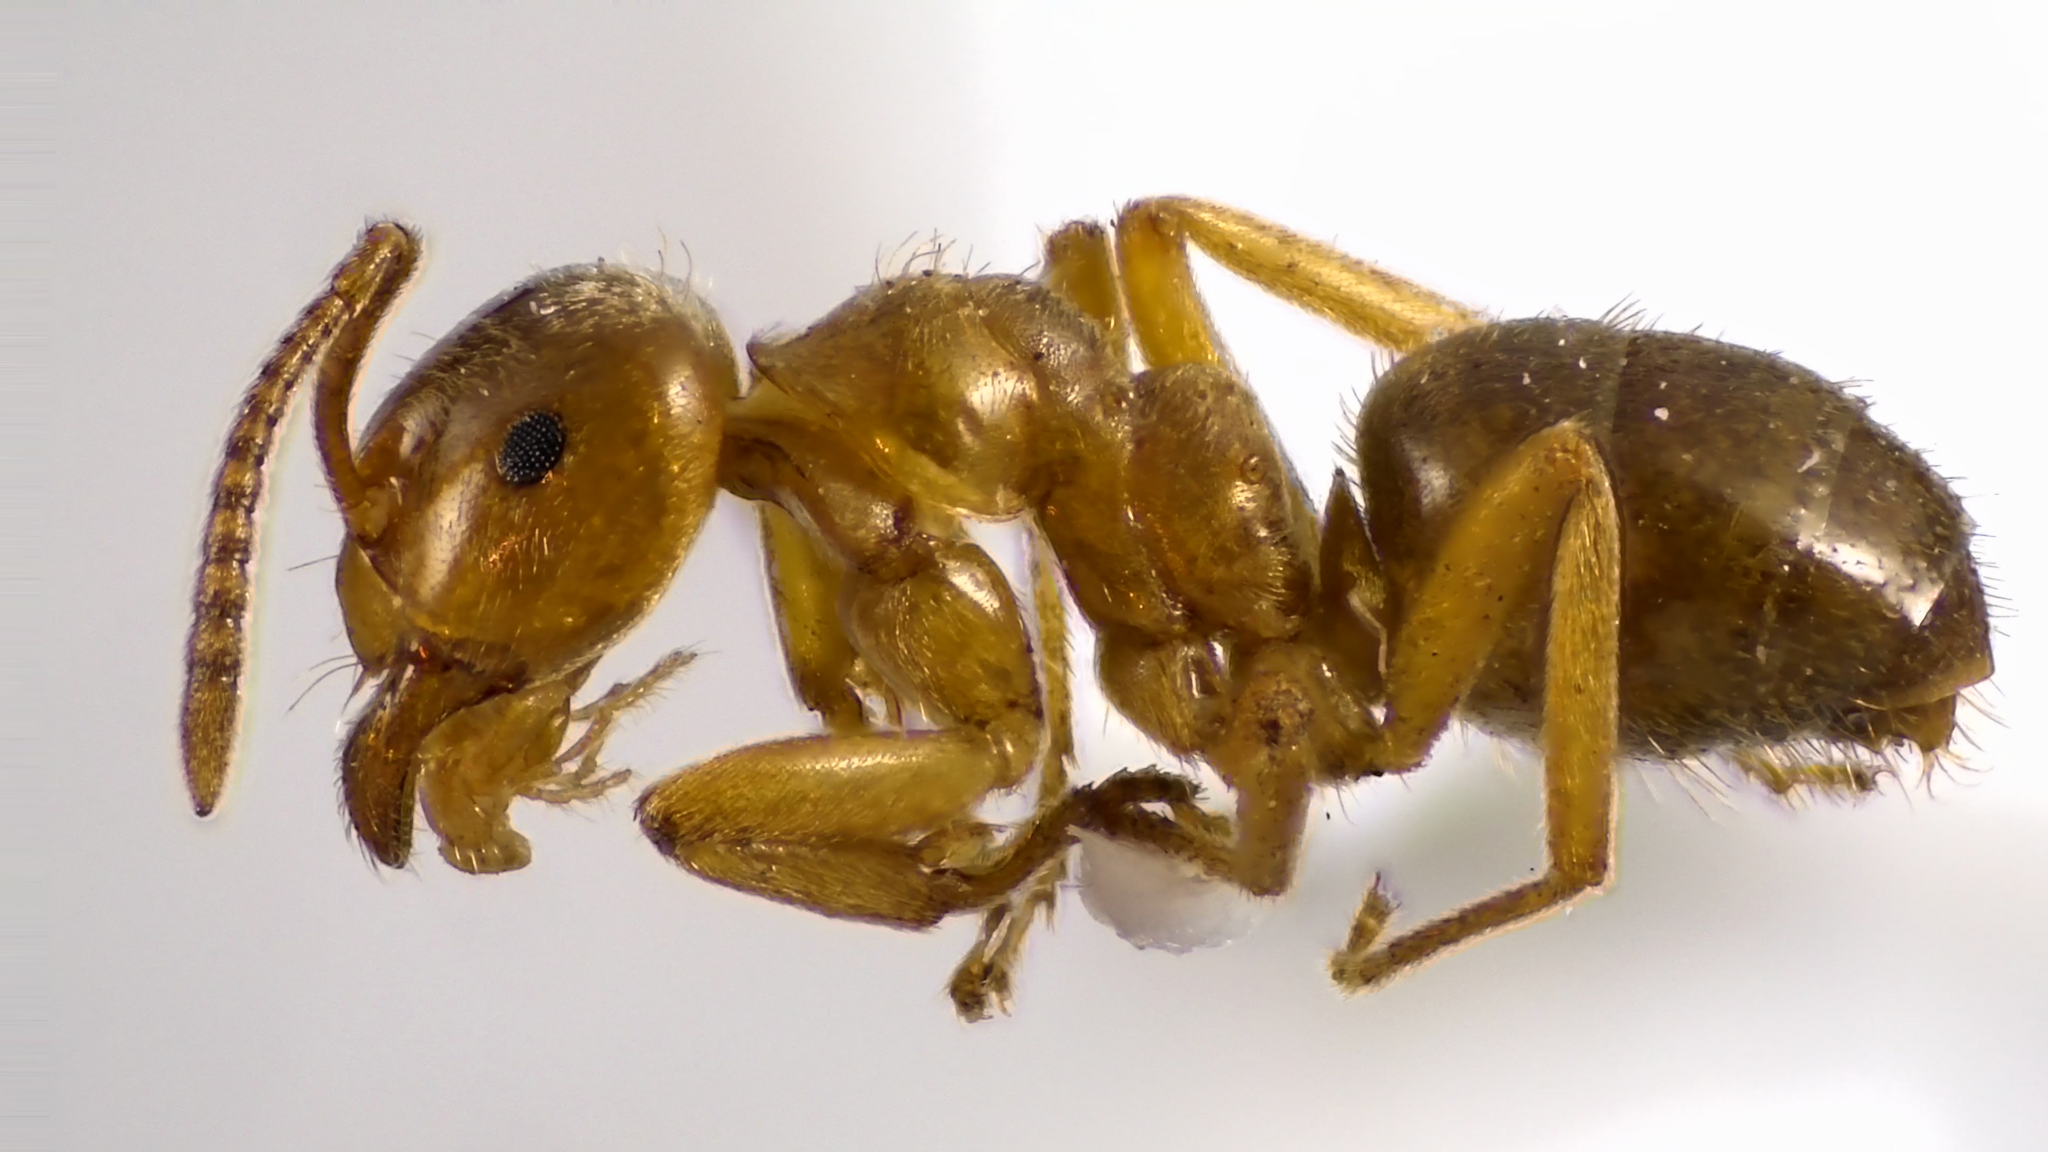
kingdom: Animalia
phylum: Arthropoda
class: Insecta
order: Hymenoptera
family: Formicidae
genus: Lasius
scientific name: Lasius aphidicola
